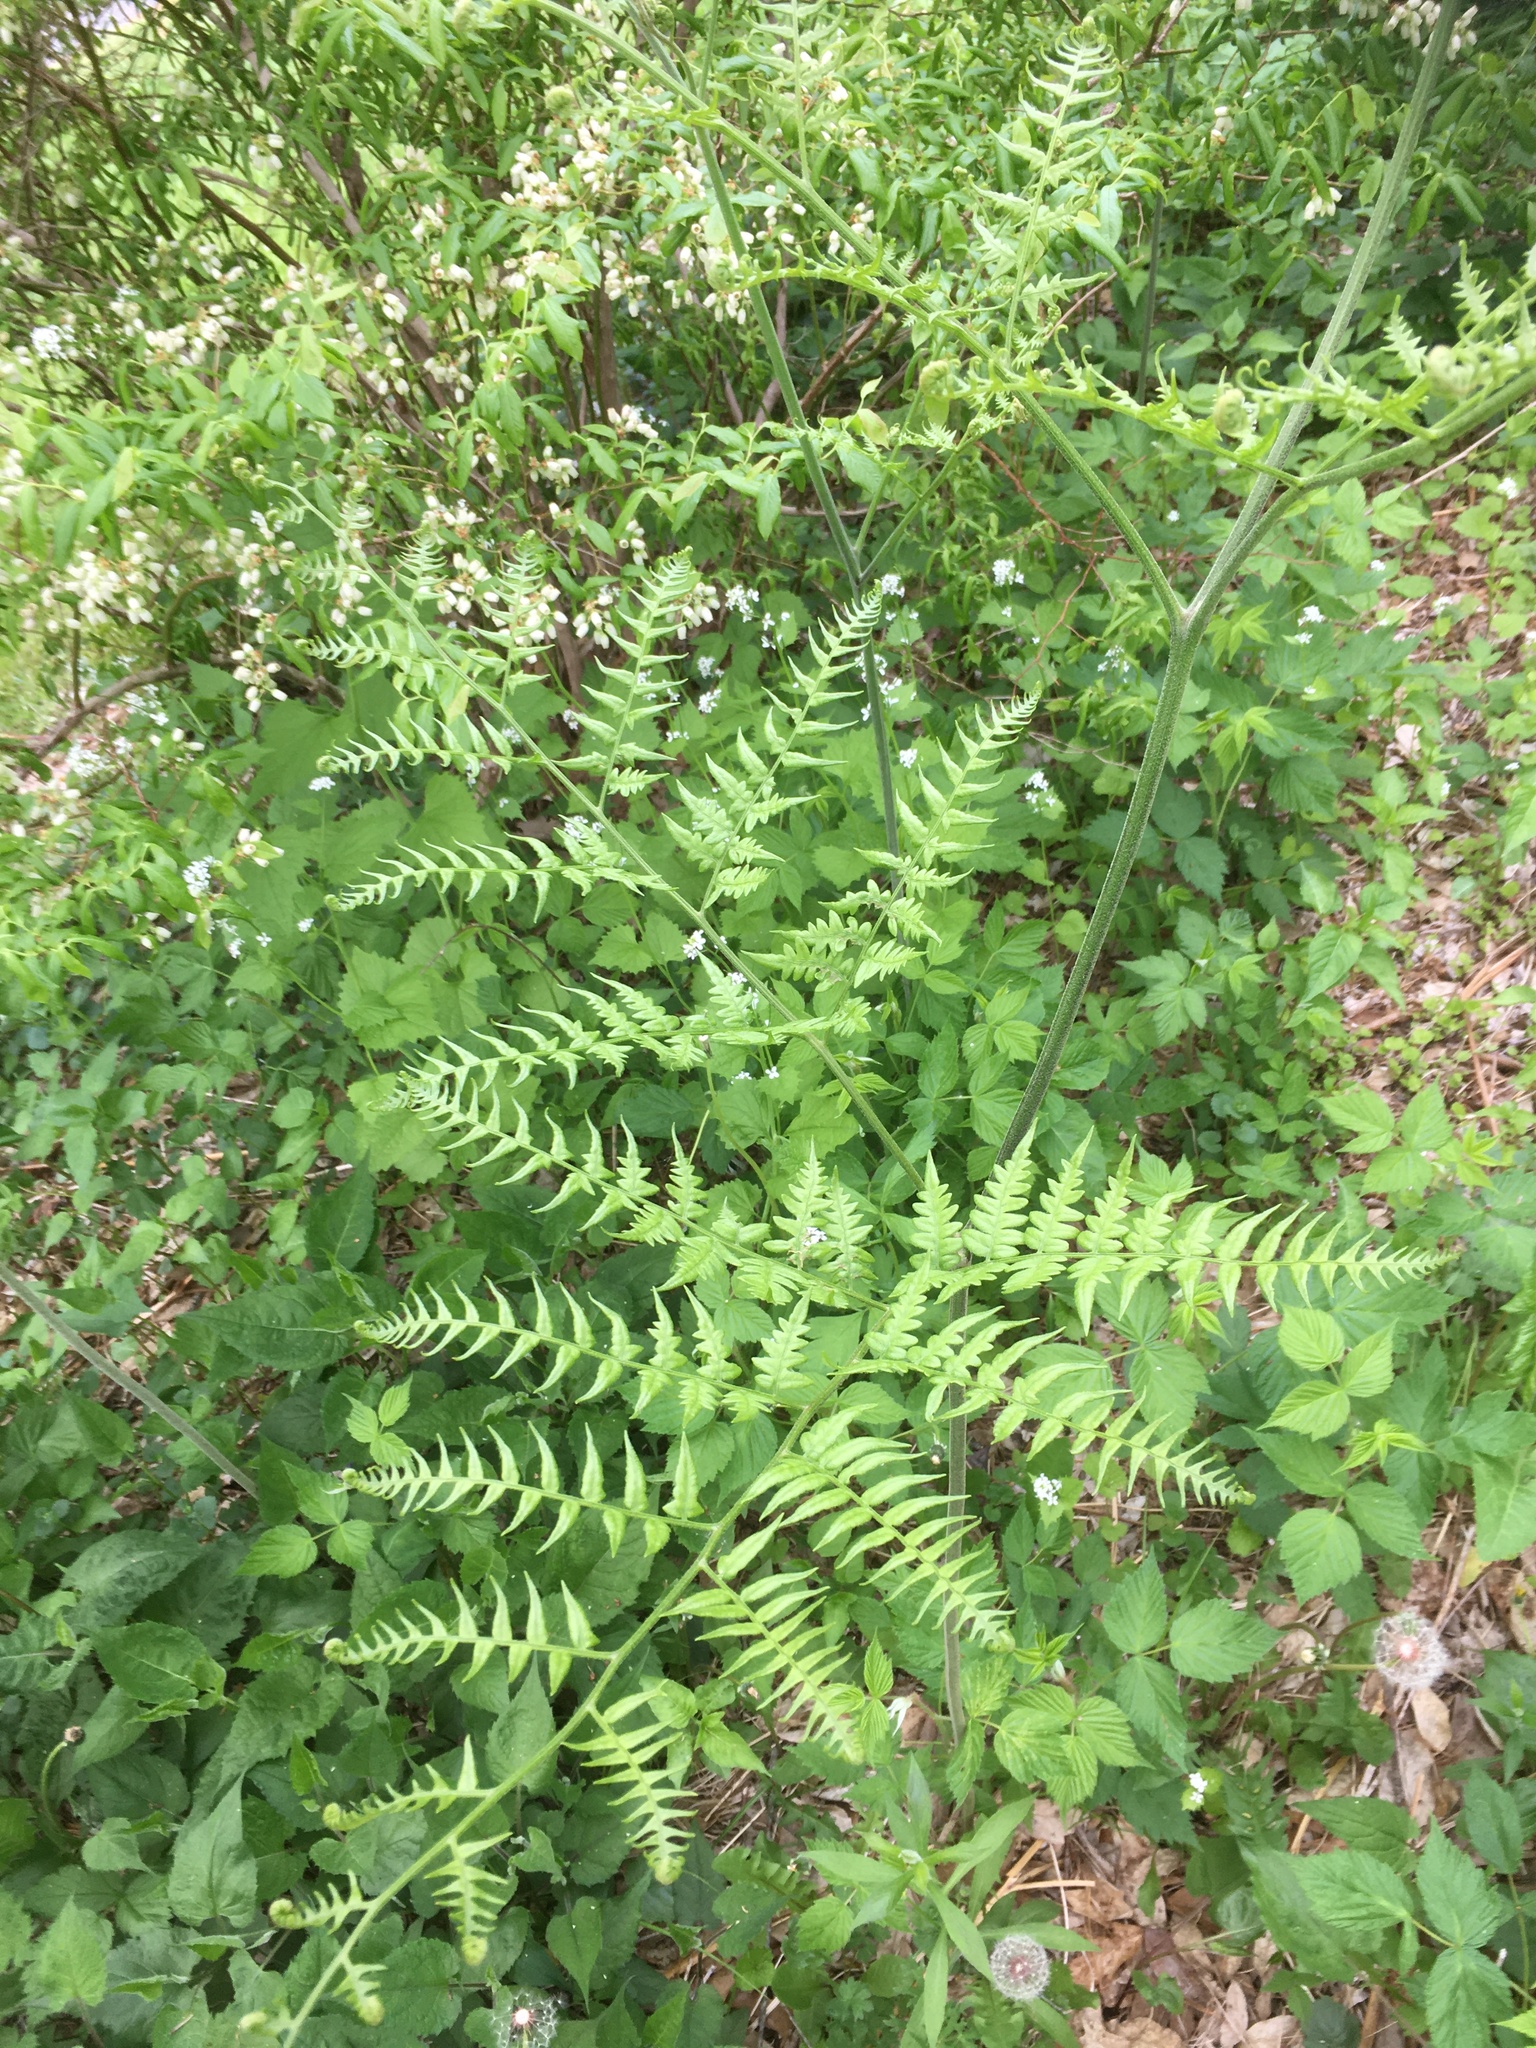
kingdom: Plantae
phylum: Tracheophyta
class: Polypodiopsida
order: Polypodiales
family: Dennstaedtiaceae
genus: Pteridium
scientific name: Pteridium aquilinum
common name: Bracken
